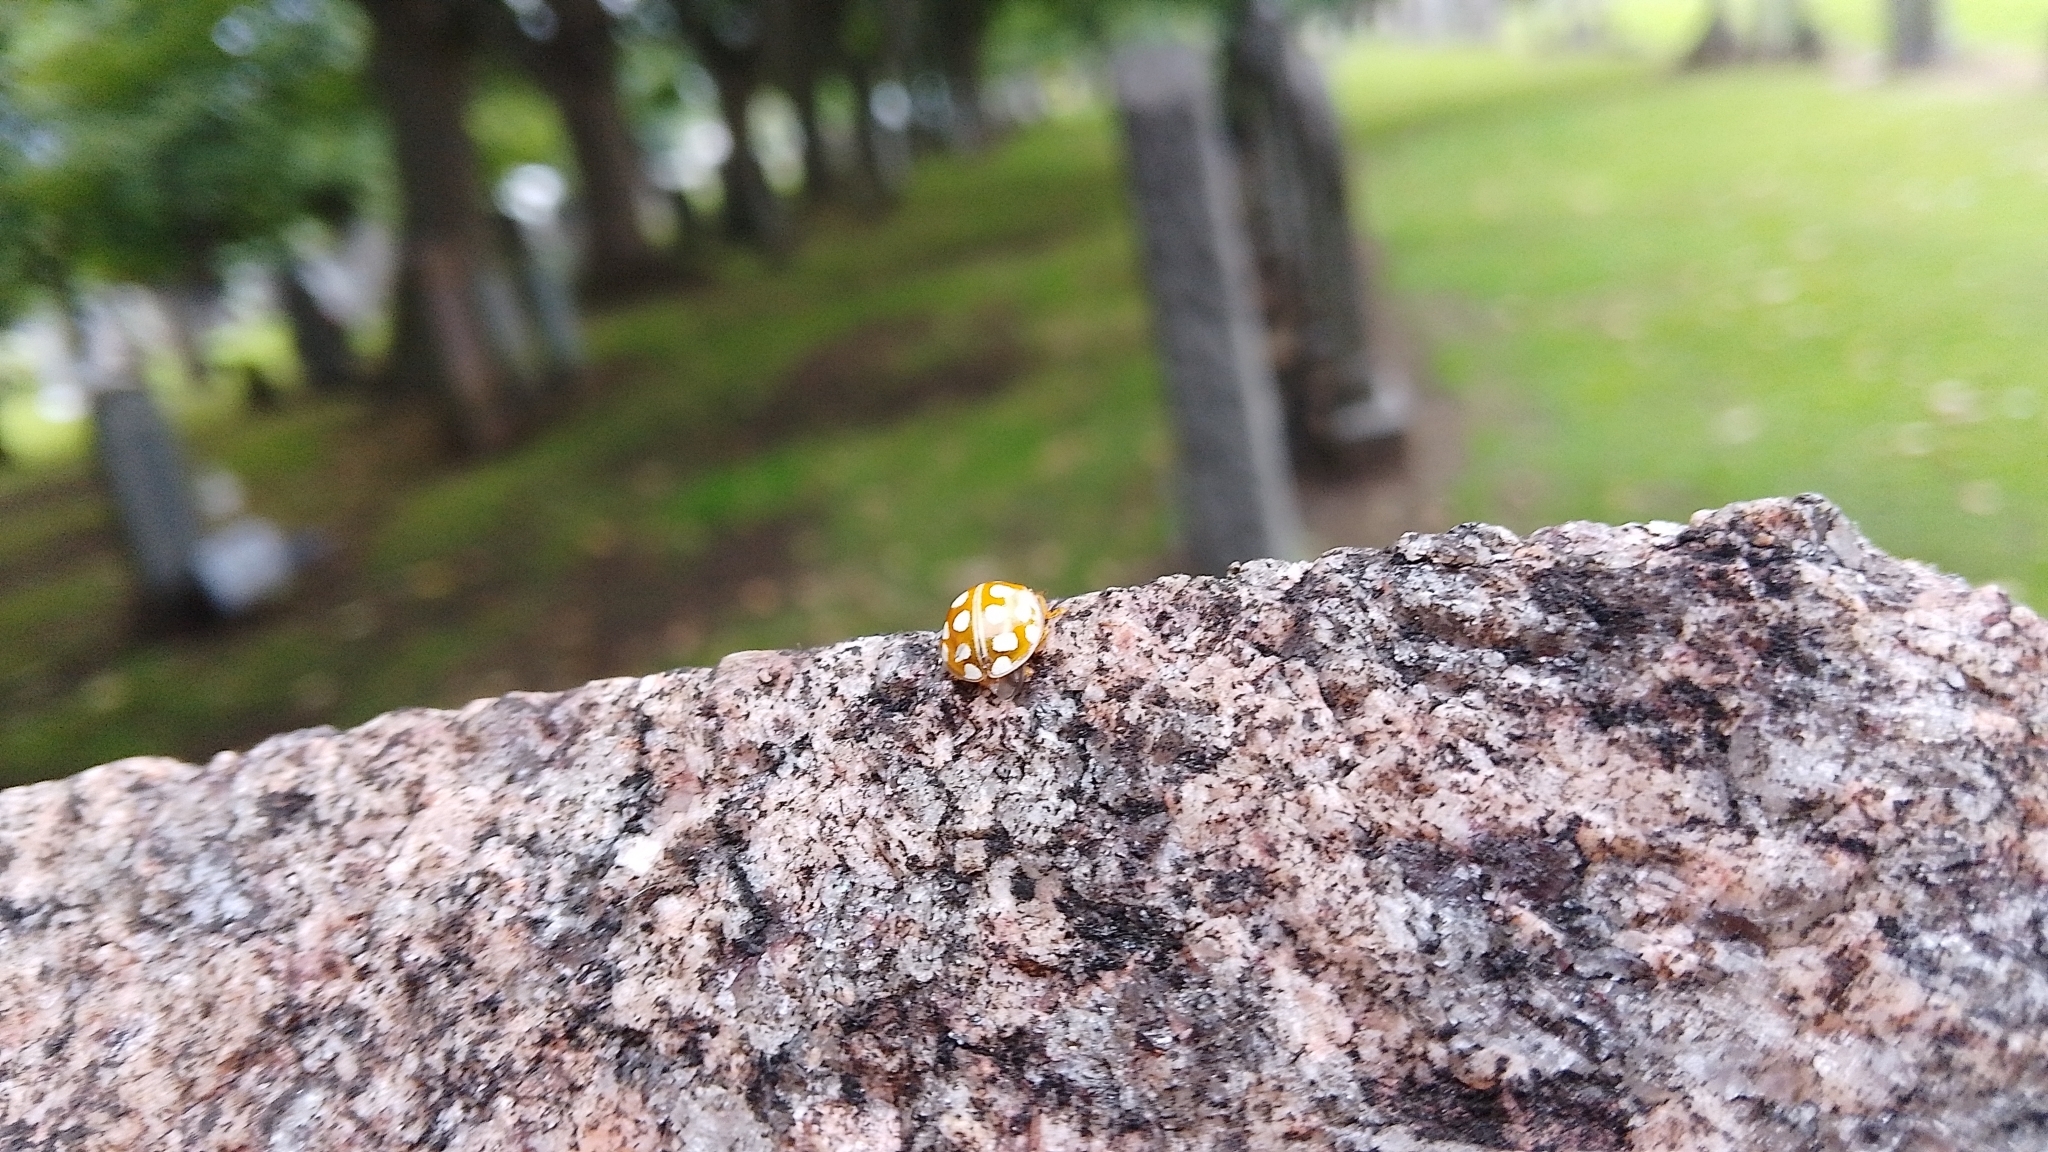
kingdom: Animalia
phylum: Arthropoda
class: Insecta
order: Coleoptera
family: Coccinellidae
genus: Halyzia
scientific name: Halyzia sedecimguttata
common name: Orange ladybird
